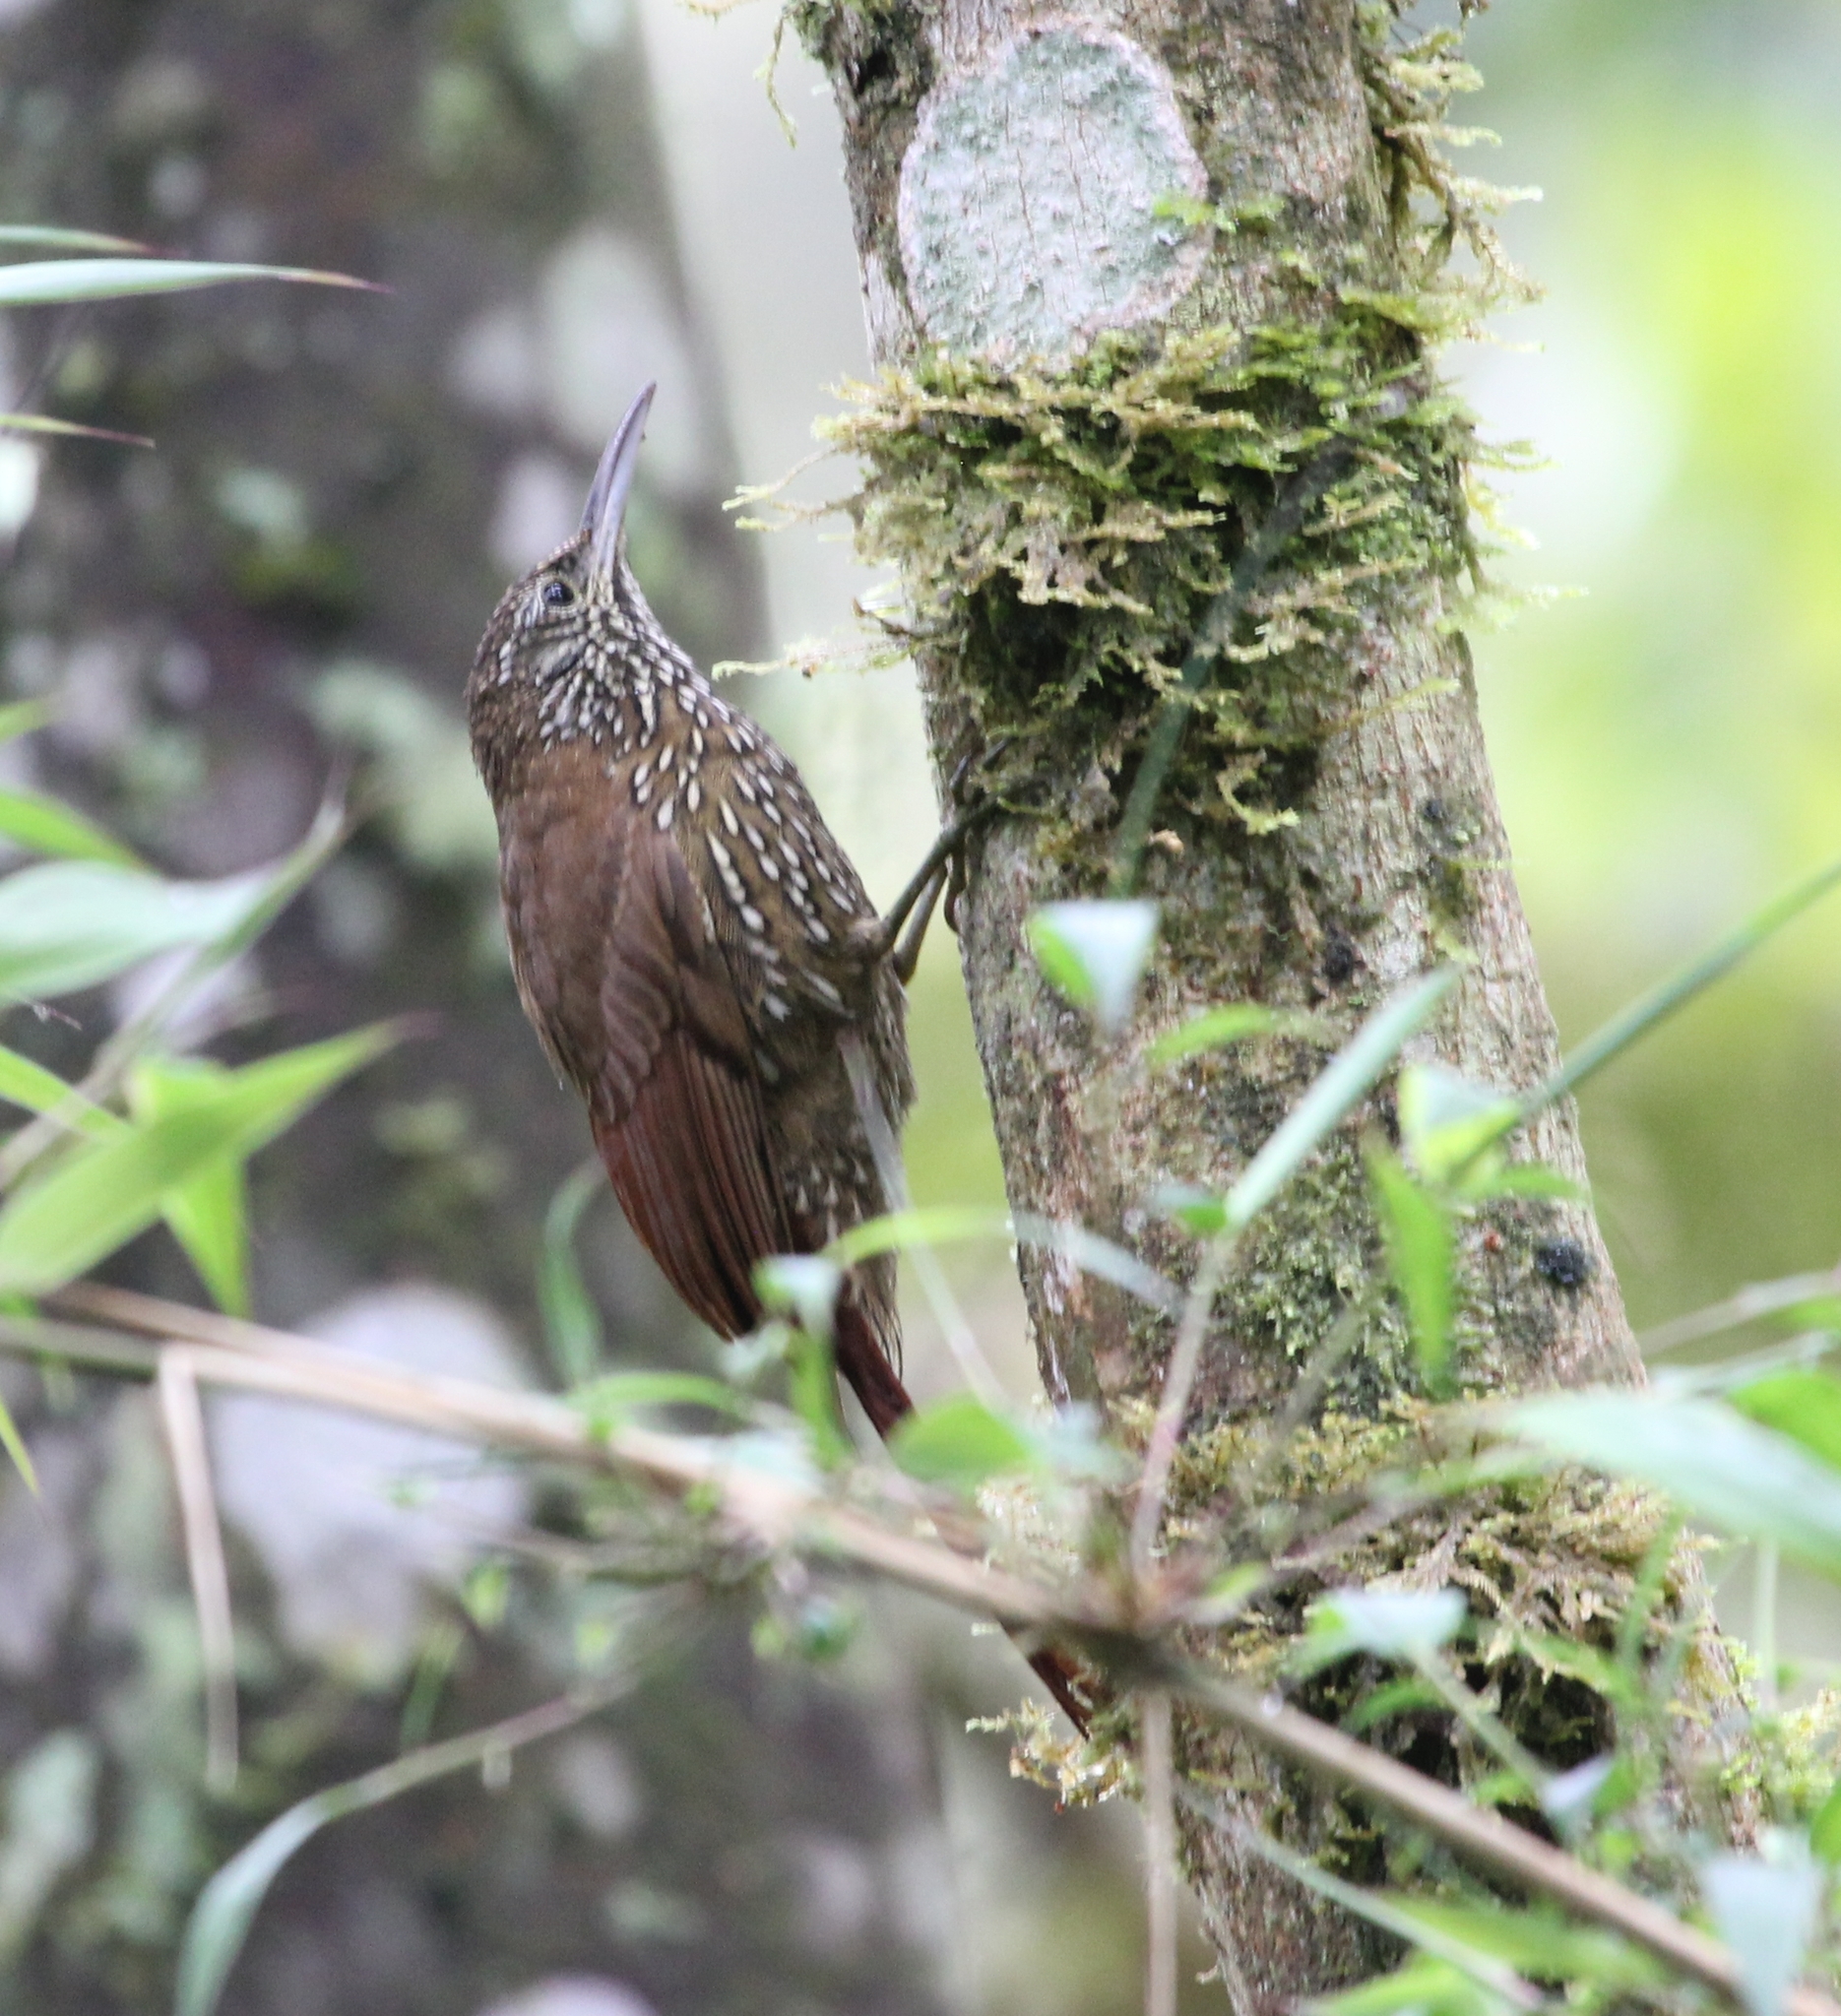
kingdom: Animalia
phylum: Chordata
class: Aves
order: Passeriformes
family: Furnariidae
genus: Lepidocolaptes
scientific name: Lepidocolaptes lacrymiger
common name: Montane woodcreeper
